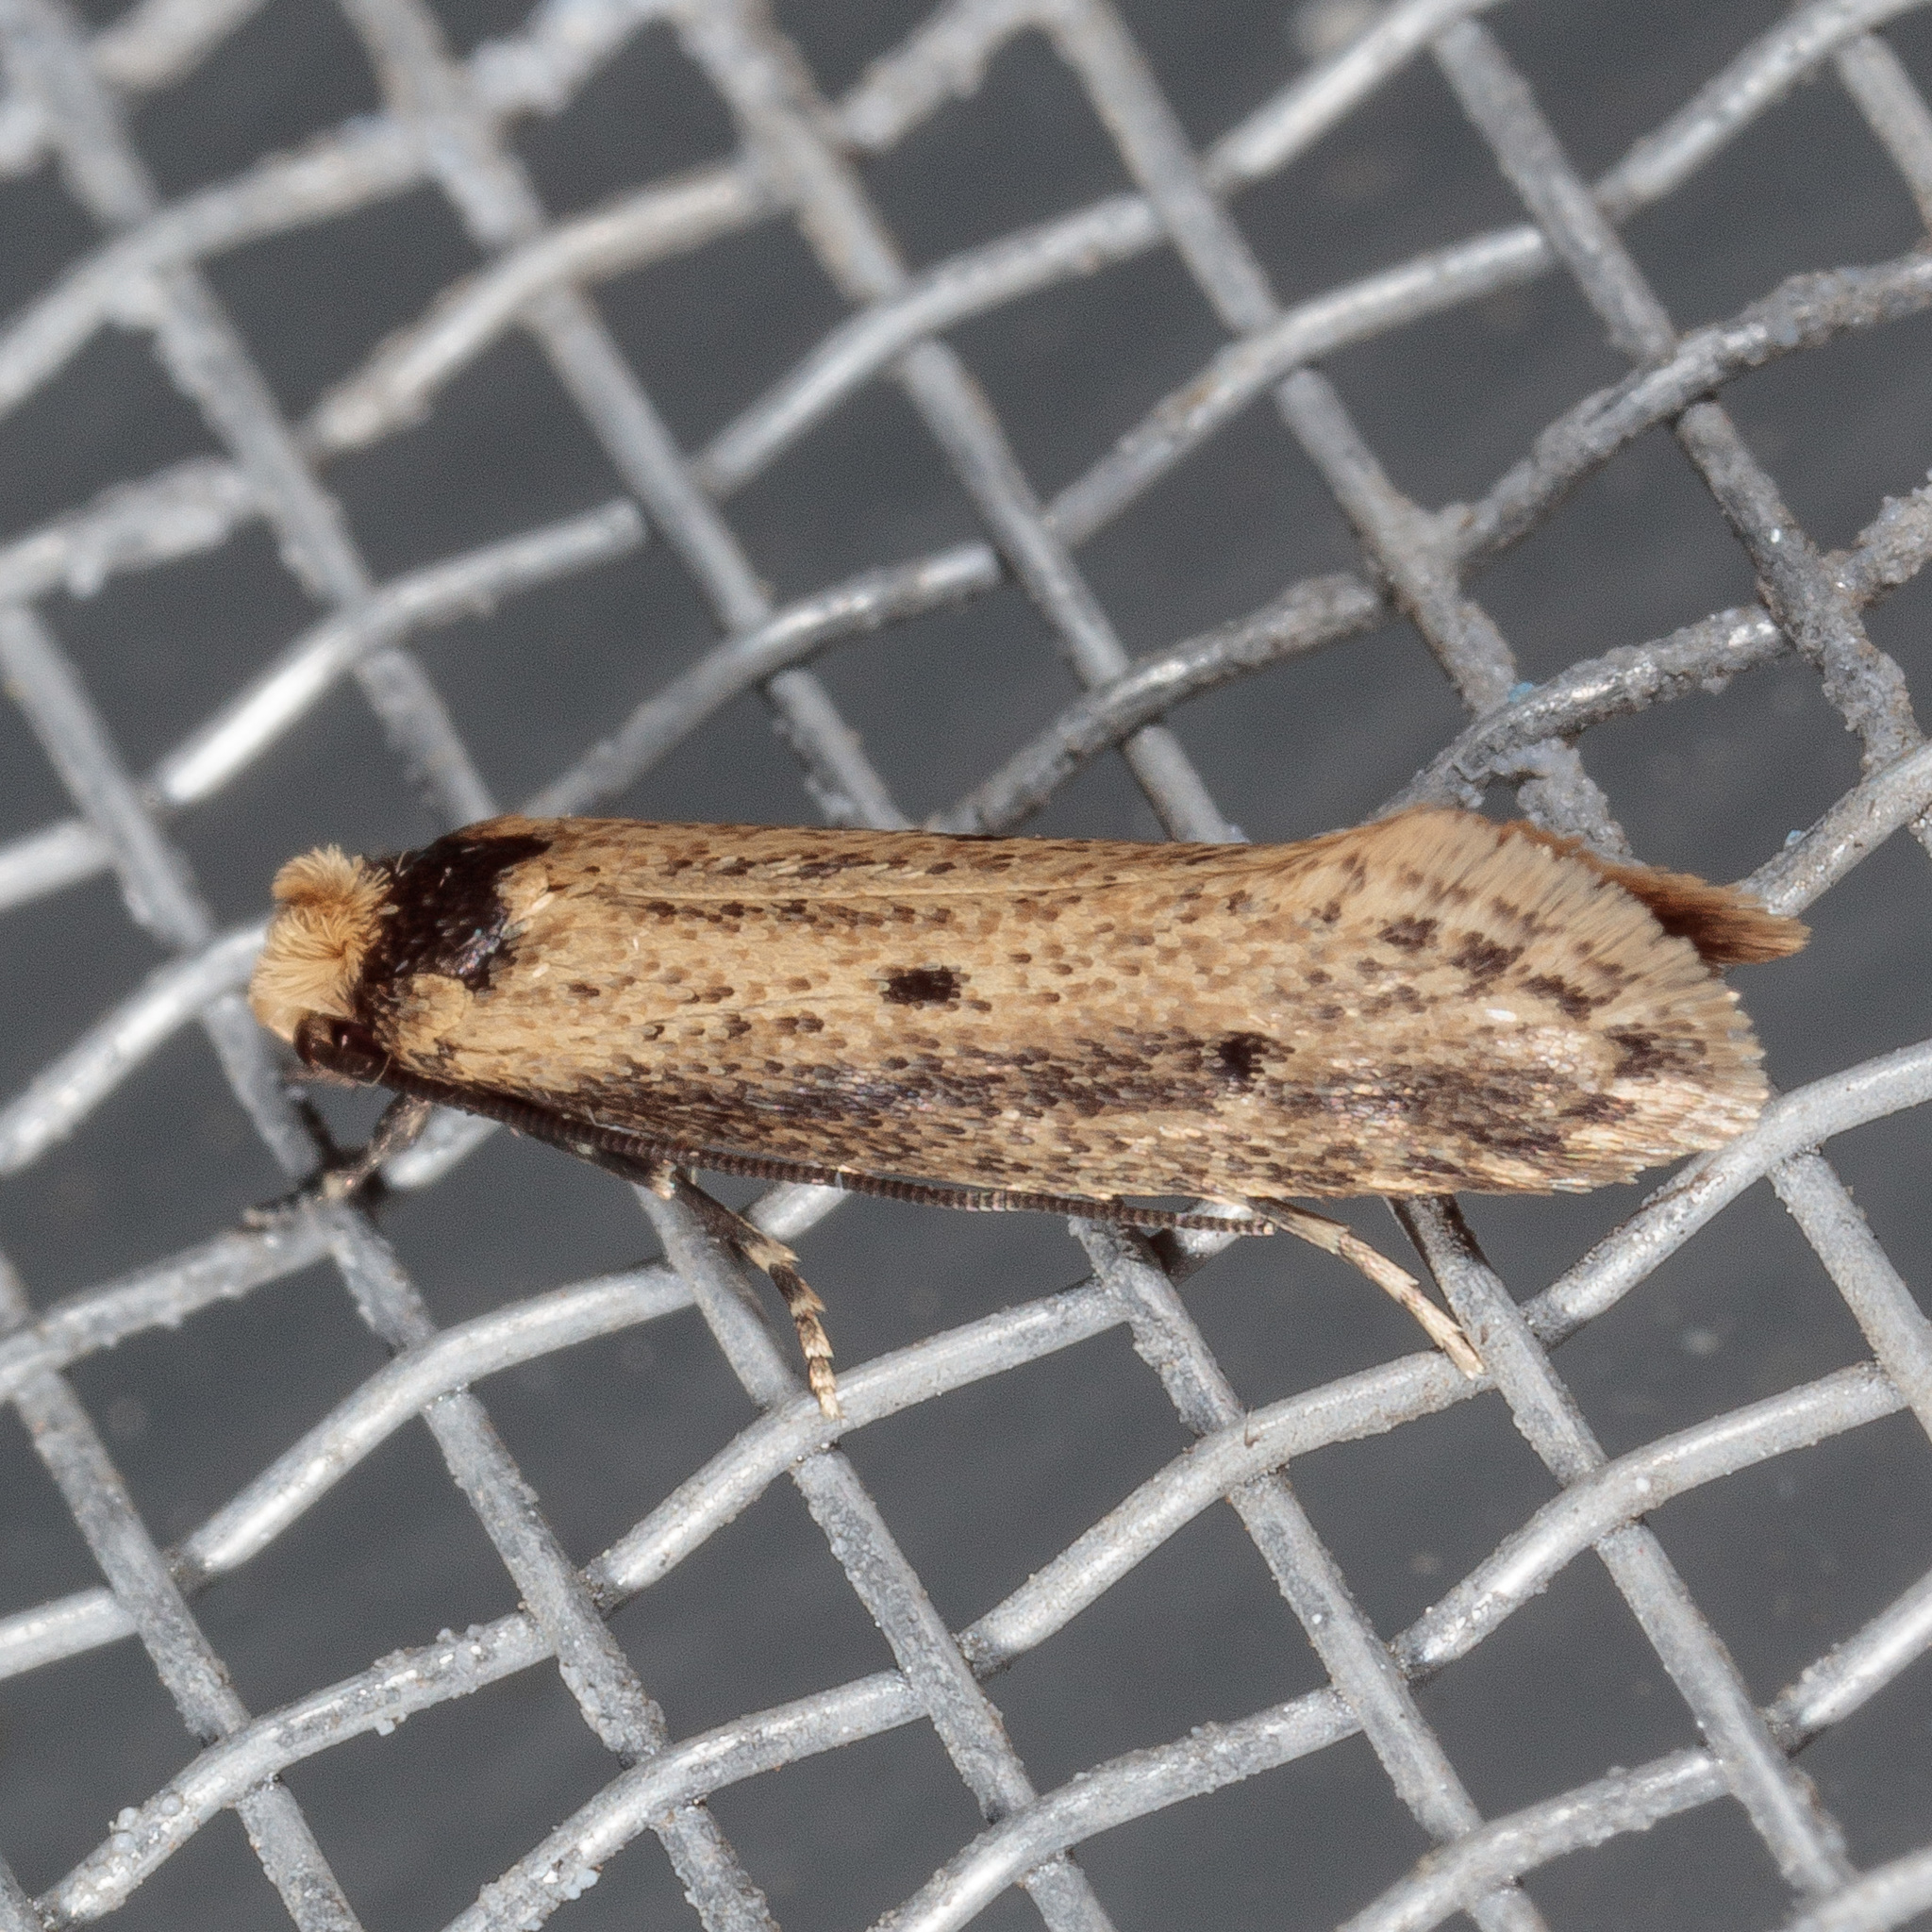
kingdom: Animalia
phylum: Arthropoda
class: Insecta
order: Lepidoptera
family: Tineidae
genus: Tinea
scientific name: Tinea apicimaculella
